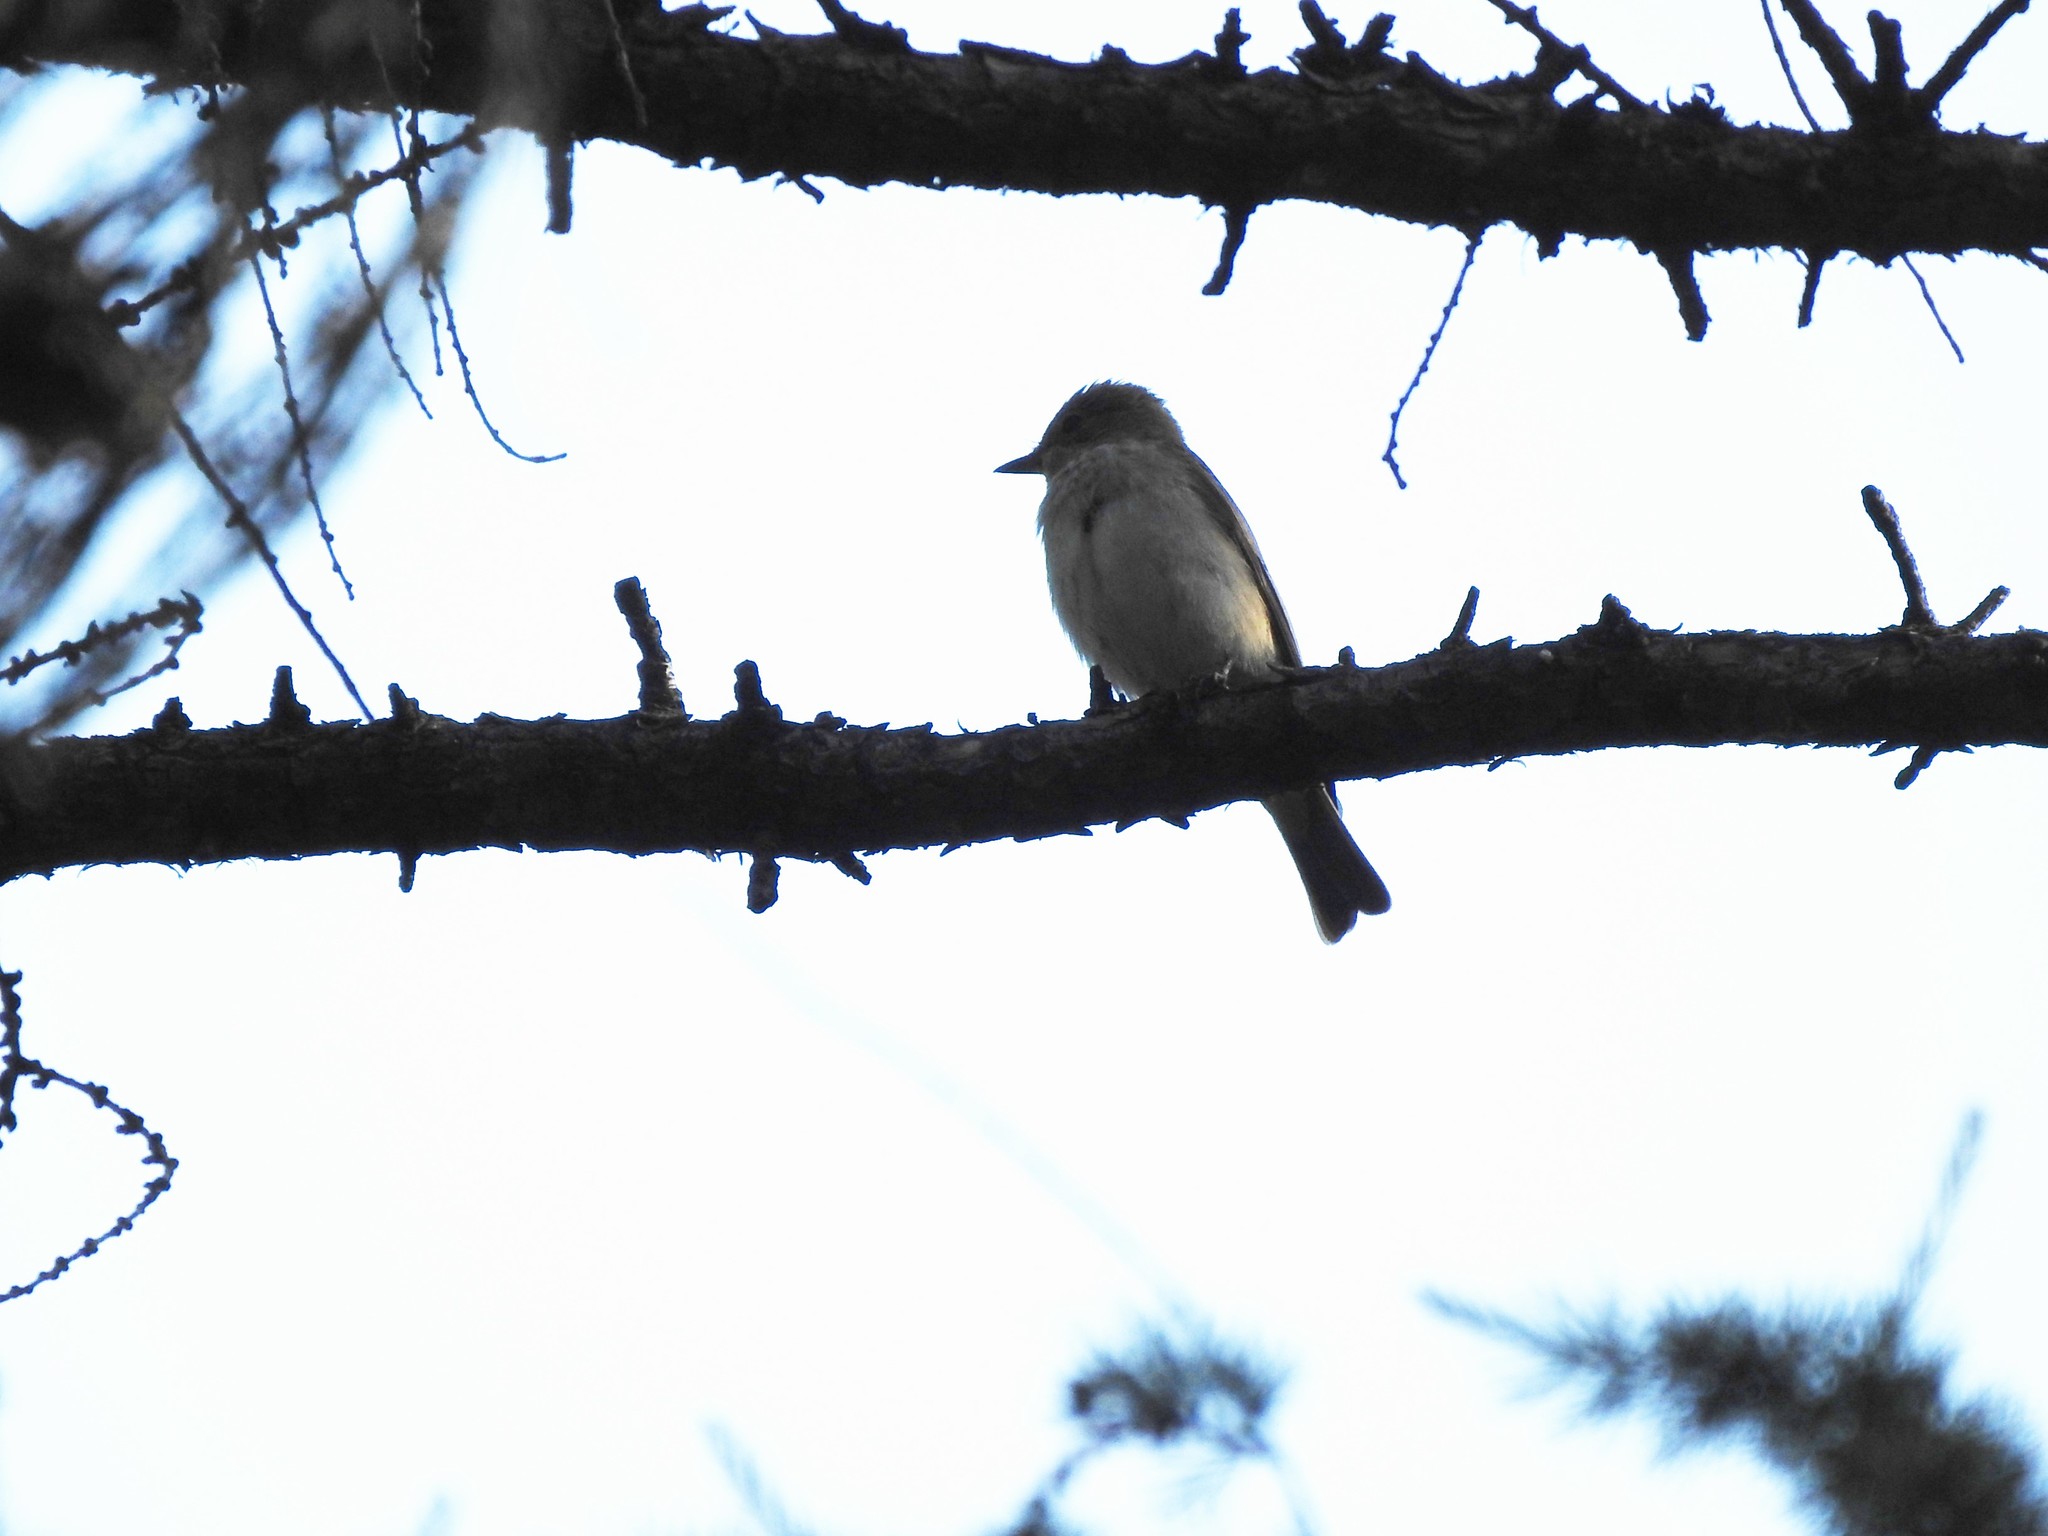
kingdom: Animalia
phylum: Chordata
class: Aves
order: Passeriformes
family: Muscicapidae
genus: Muscicapa
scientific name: Muscicapa striata
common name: Spotted flycatcher
